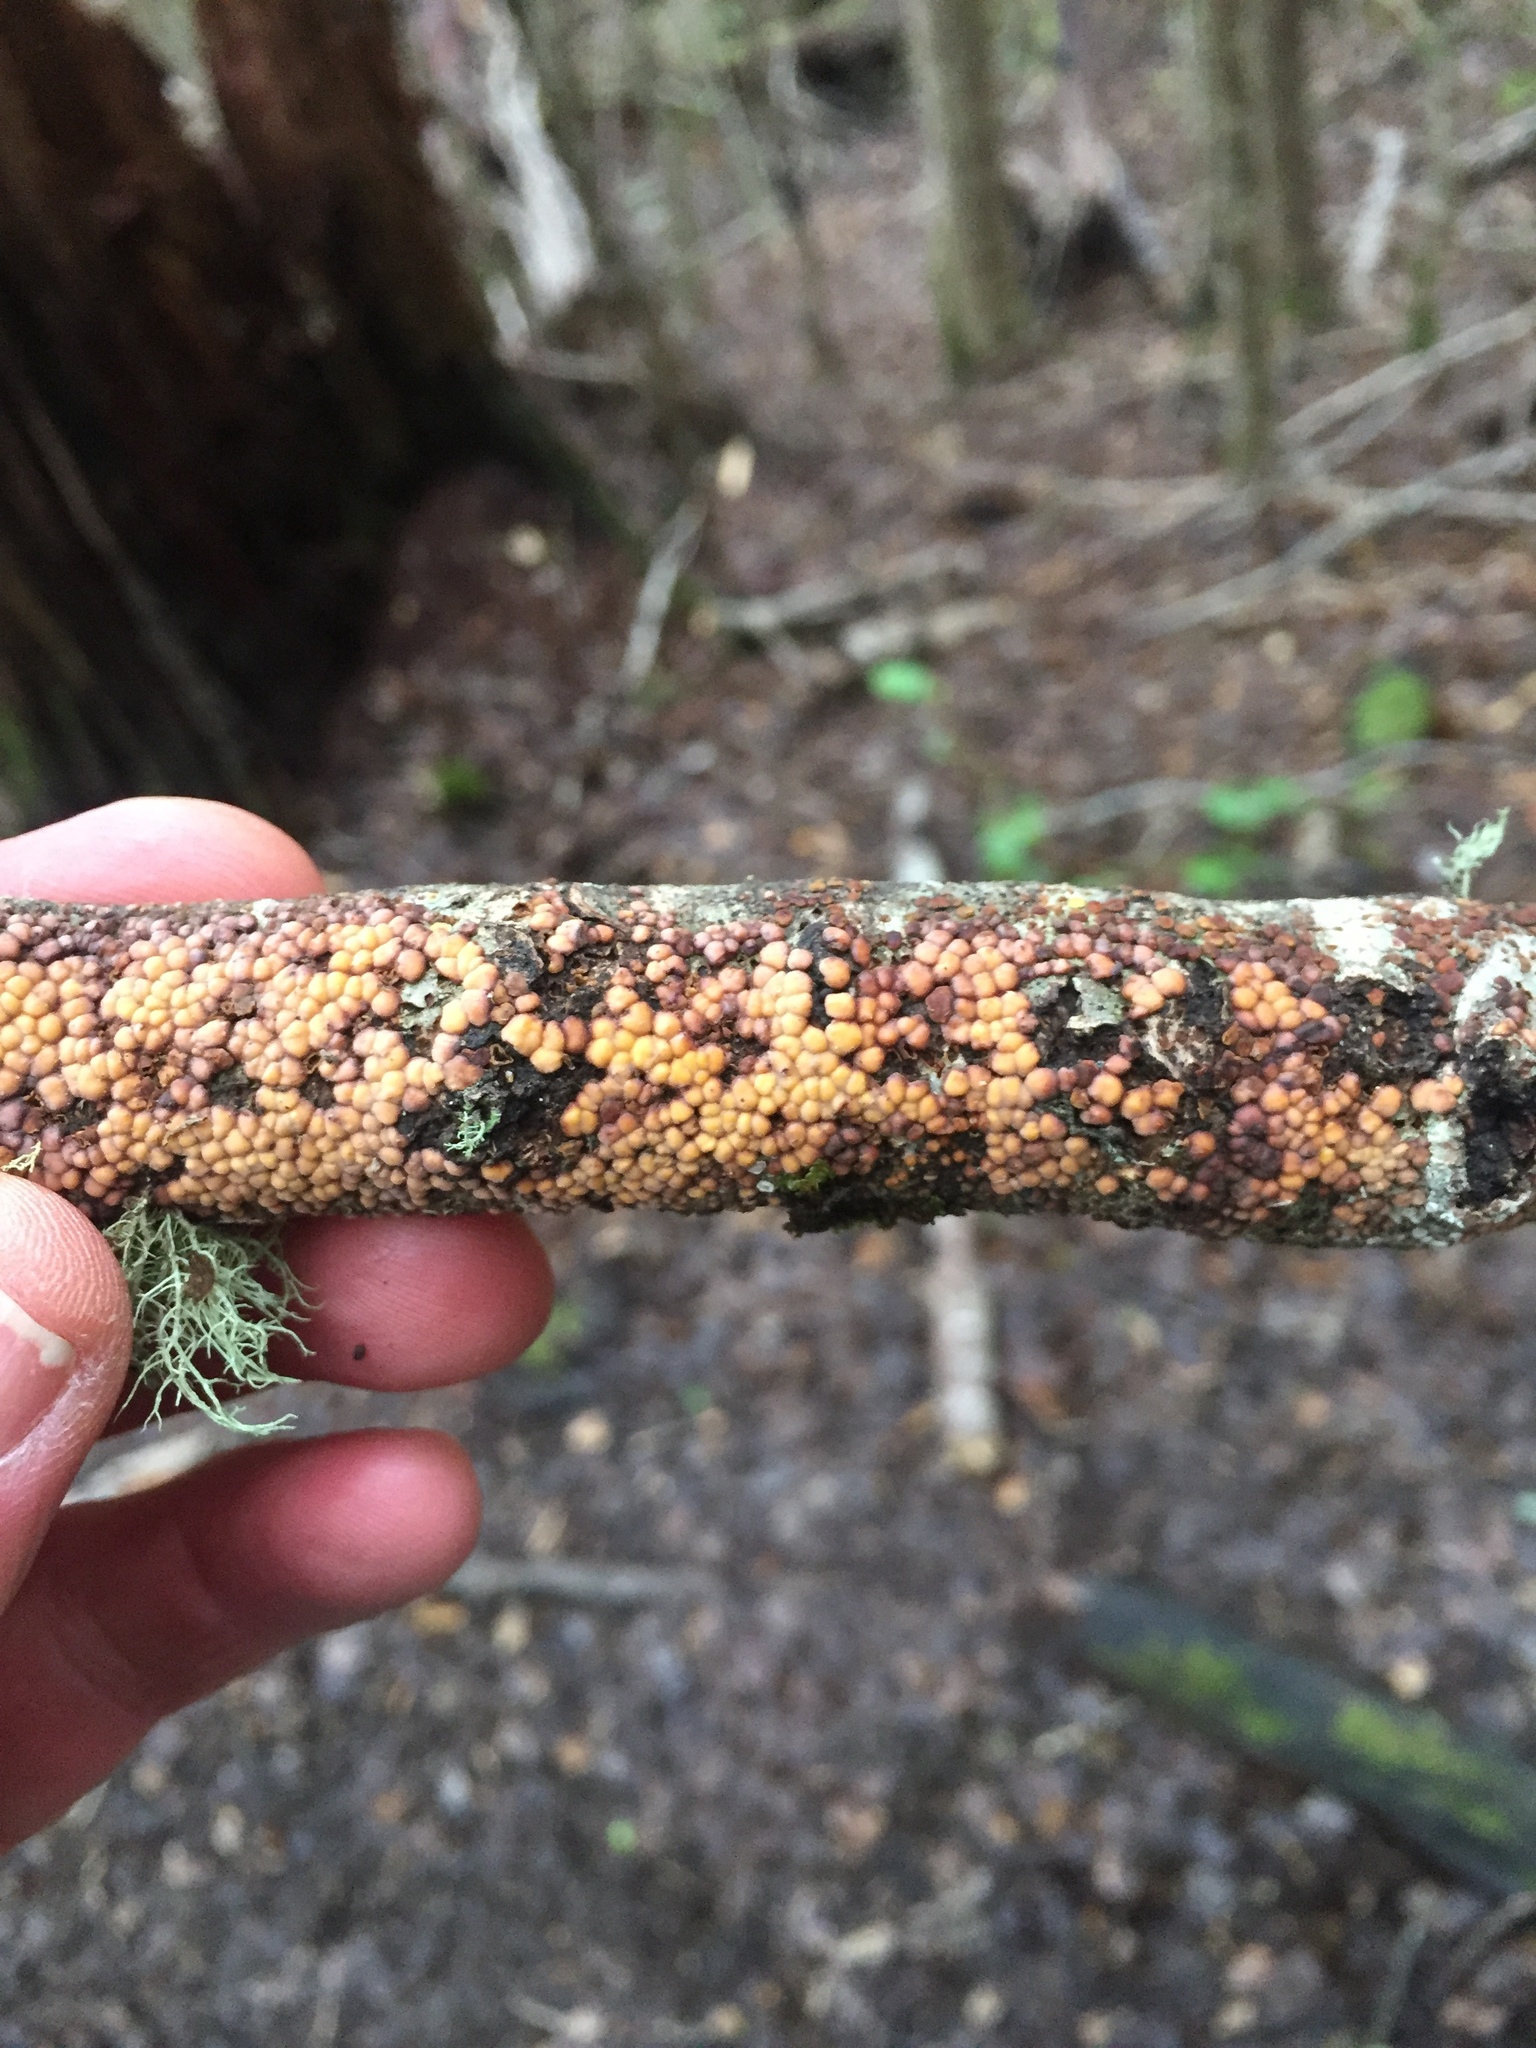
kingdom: Fungi
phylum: Basidiomycota
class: Agaricomycetes
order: Russulales
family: Stereaceae
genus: Aleurodiscus
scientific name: Aleurodiscus berggrenii
